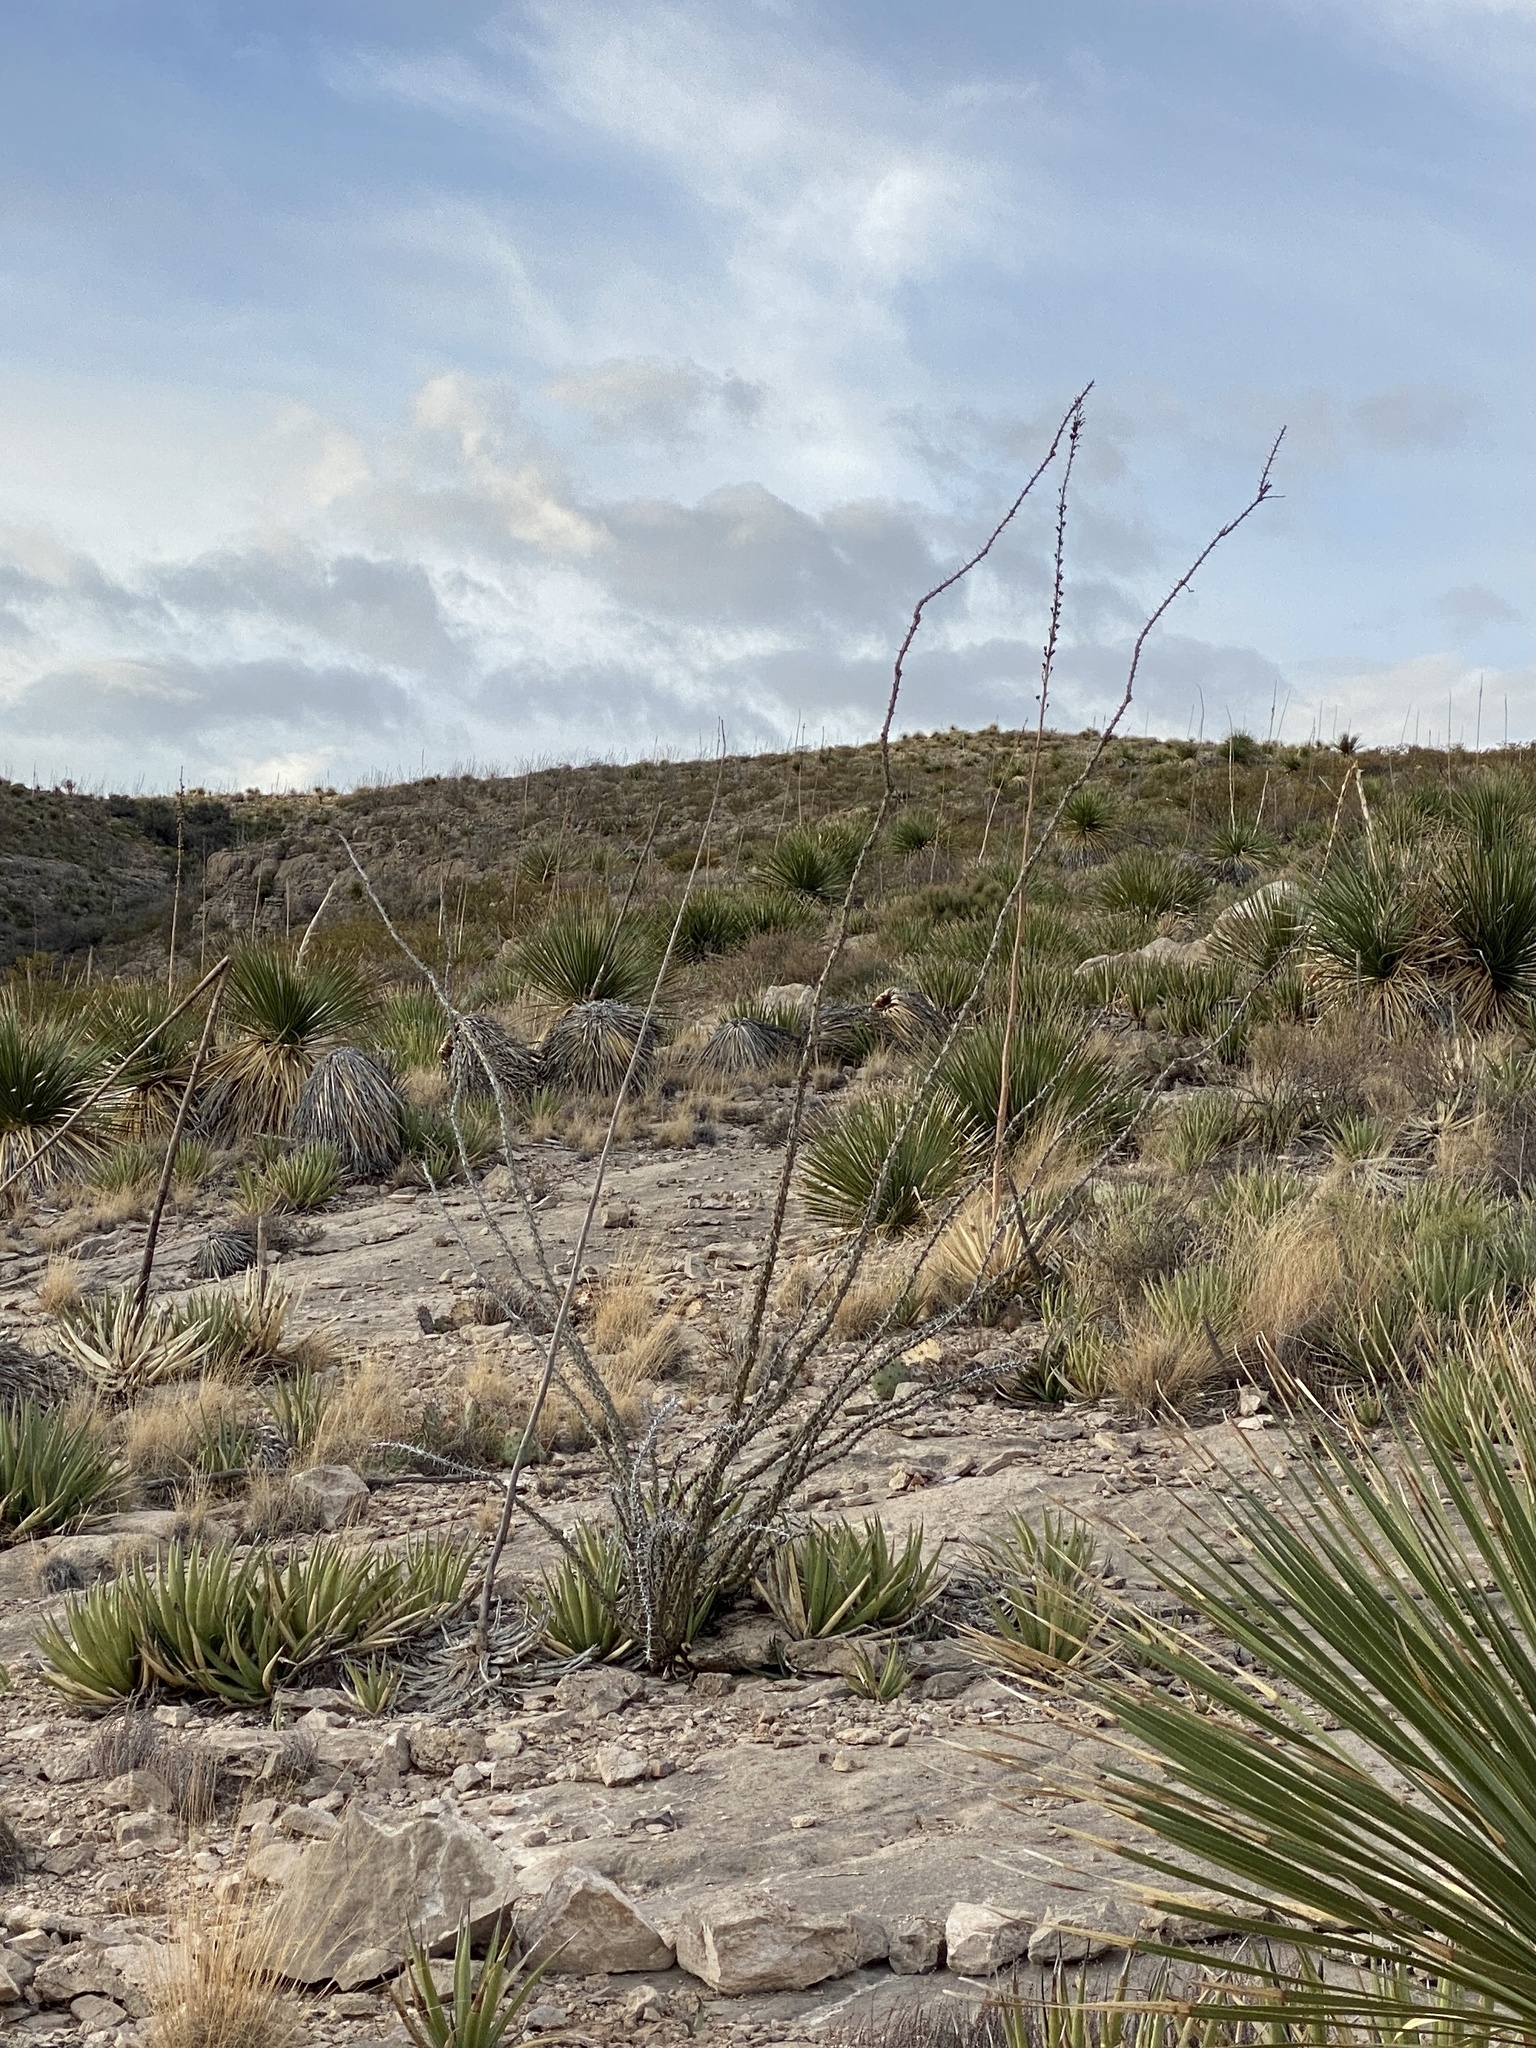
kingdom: Plantae
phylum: Tracheophyta
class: Magnoliopsida
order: Ericales
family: Fouquieriaceae
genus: Fouquieria
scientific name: Fouquieria splendens
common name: Vine-cactus
